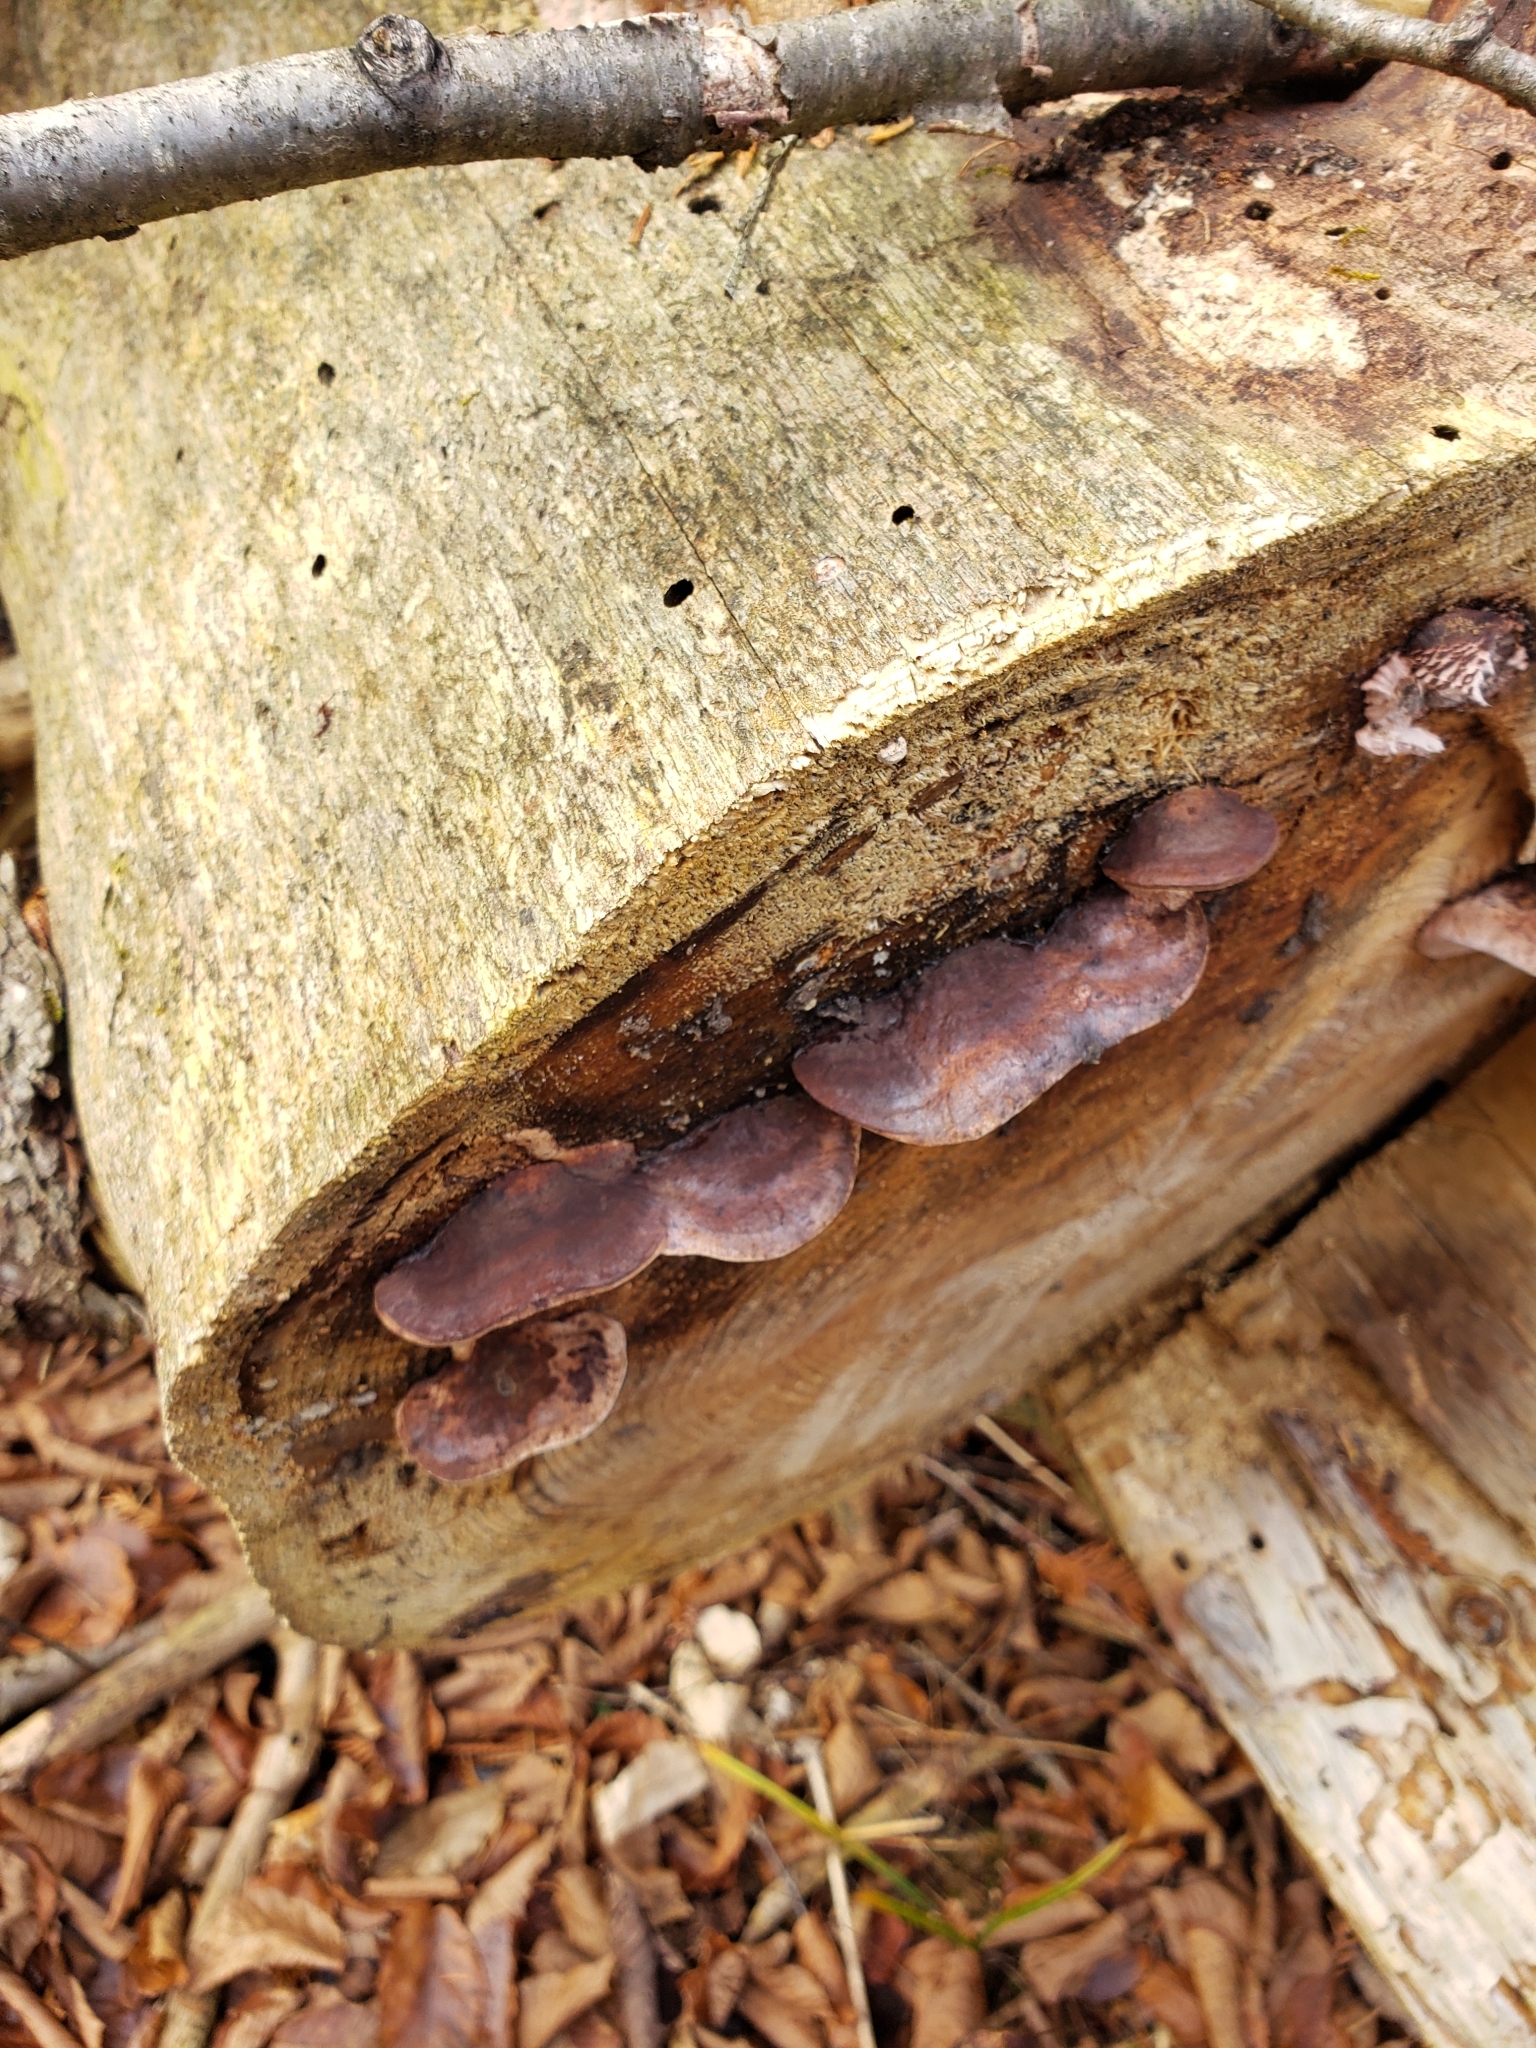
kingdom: Fungi
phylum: Basidiomycota
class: Agaricomycetes
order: Polyporales
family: Fomitopsidaceae
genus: Rhodofomes
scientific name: Rhodofomes cajanderi
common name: Rosy conk
